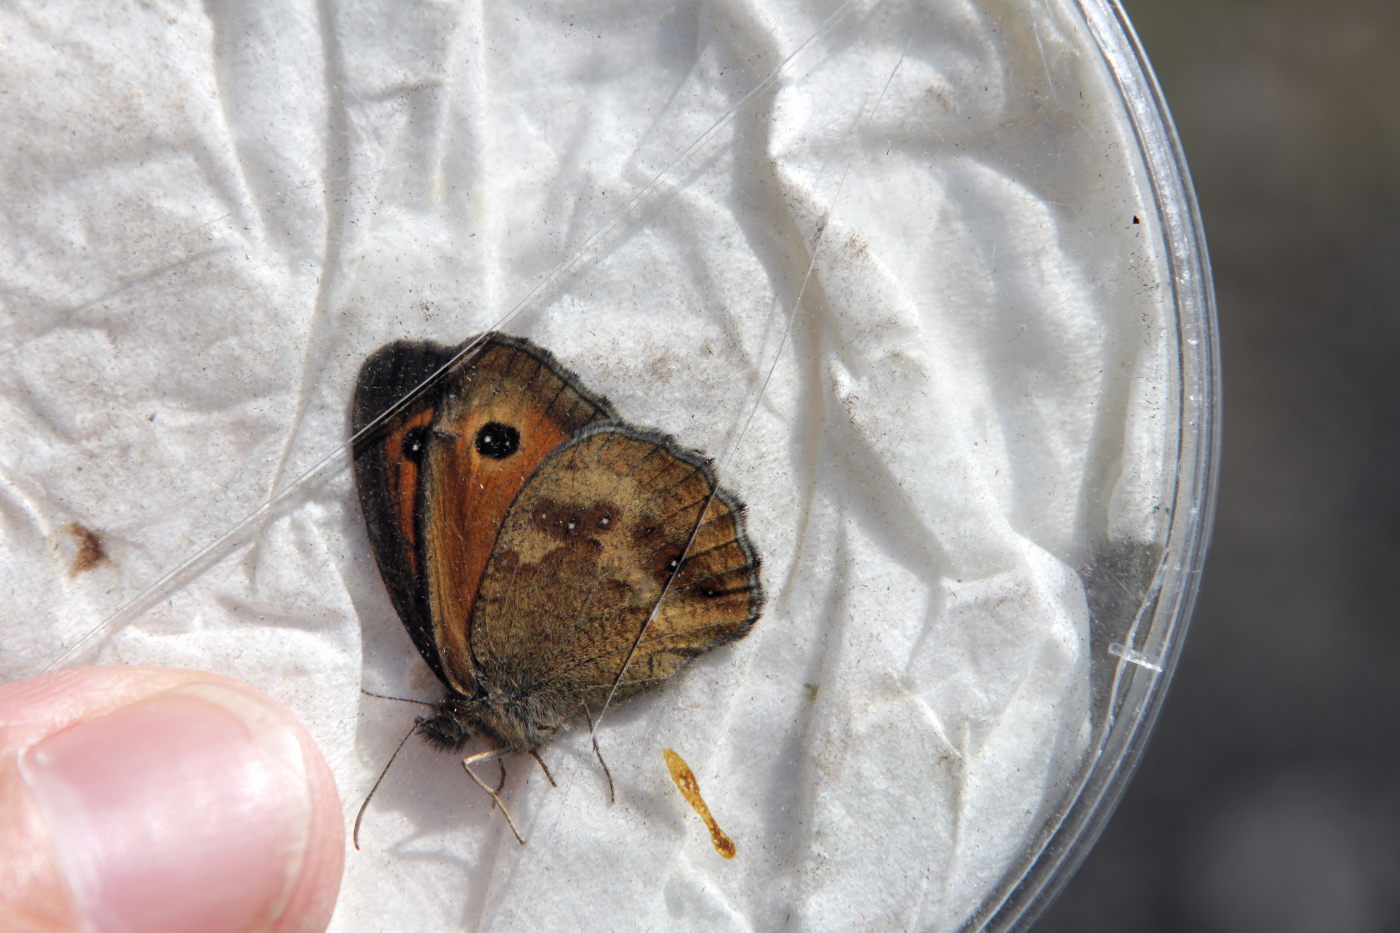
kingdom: Animalia
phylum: Arthropoda
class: Insecta
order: Lepidoptera
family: Nymphalidae
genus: Pyronia
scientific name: Pyronia tithonus
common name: Gatekeeper
